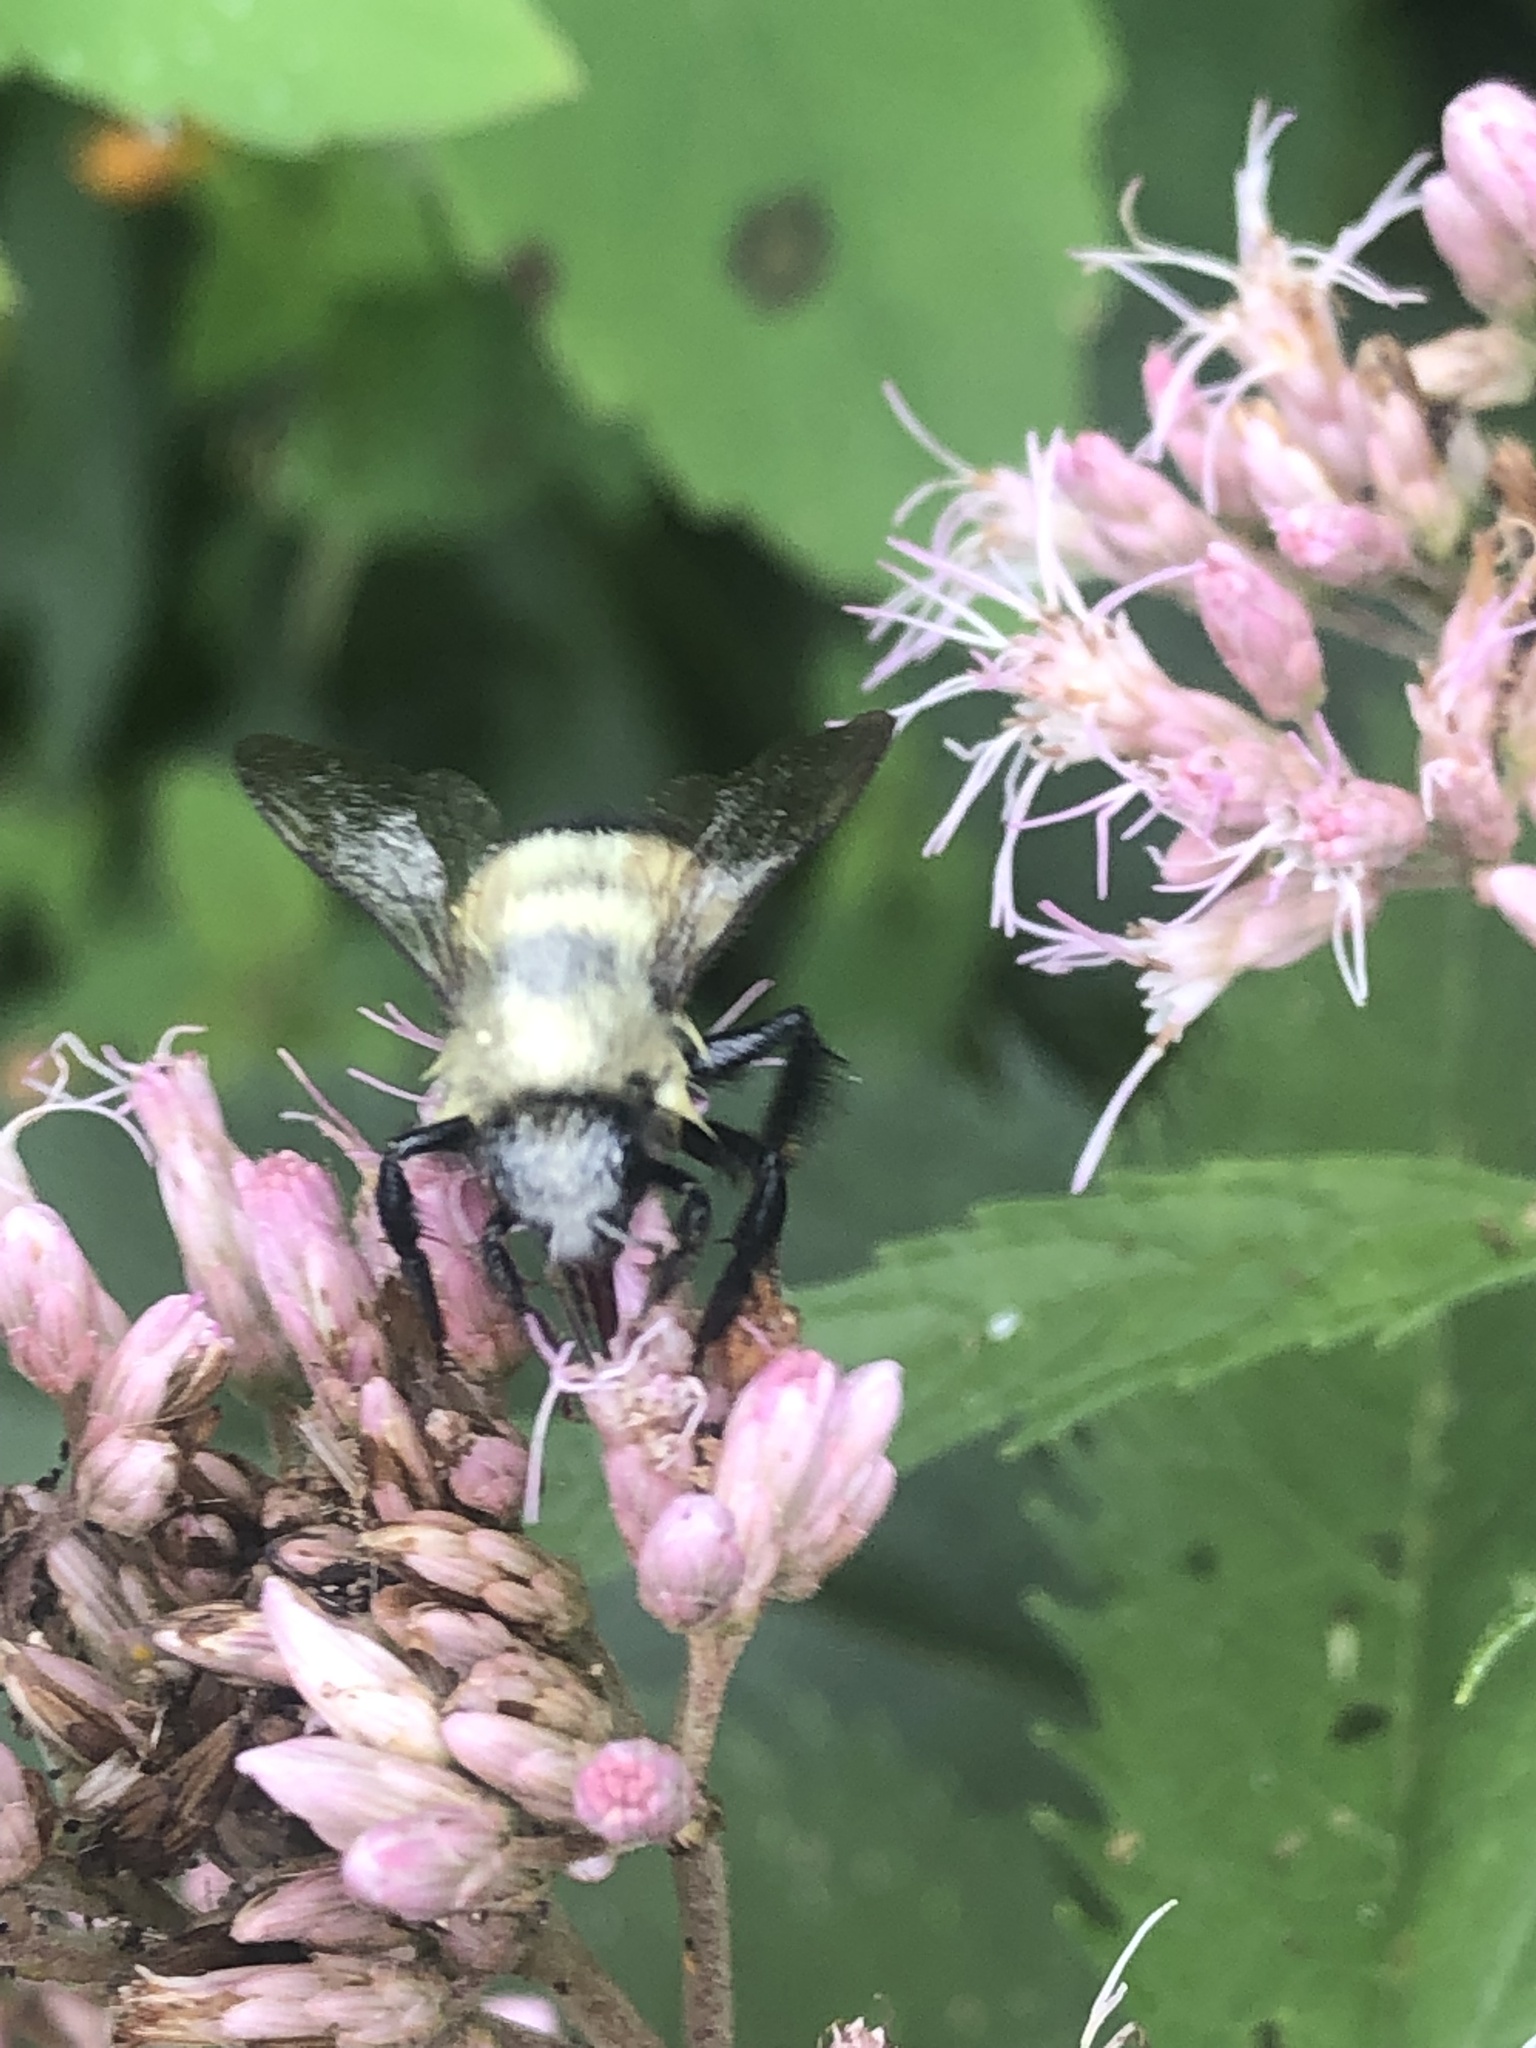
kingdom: Animalia
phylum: Arthropoda
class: Insecta
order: Hymenoptera
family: Apidae
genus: Pyrobombus
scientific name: Pyrobombus
